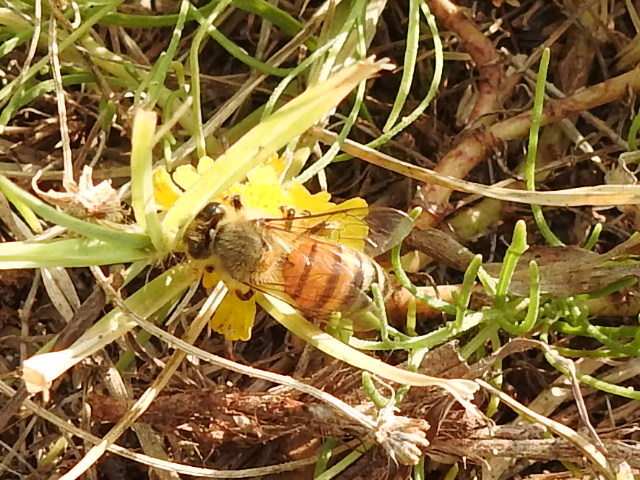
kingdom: Animalia
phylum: Arthropoda
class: Insecta
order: Hymenoptera
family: Apidae
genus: Apis
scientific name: Apis mellifera
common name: Honey bee
